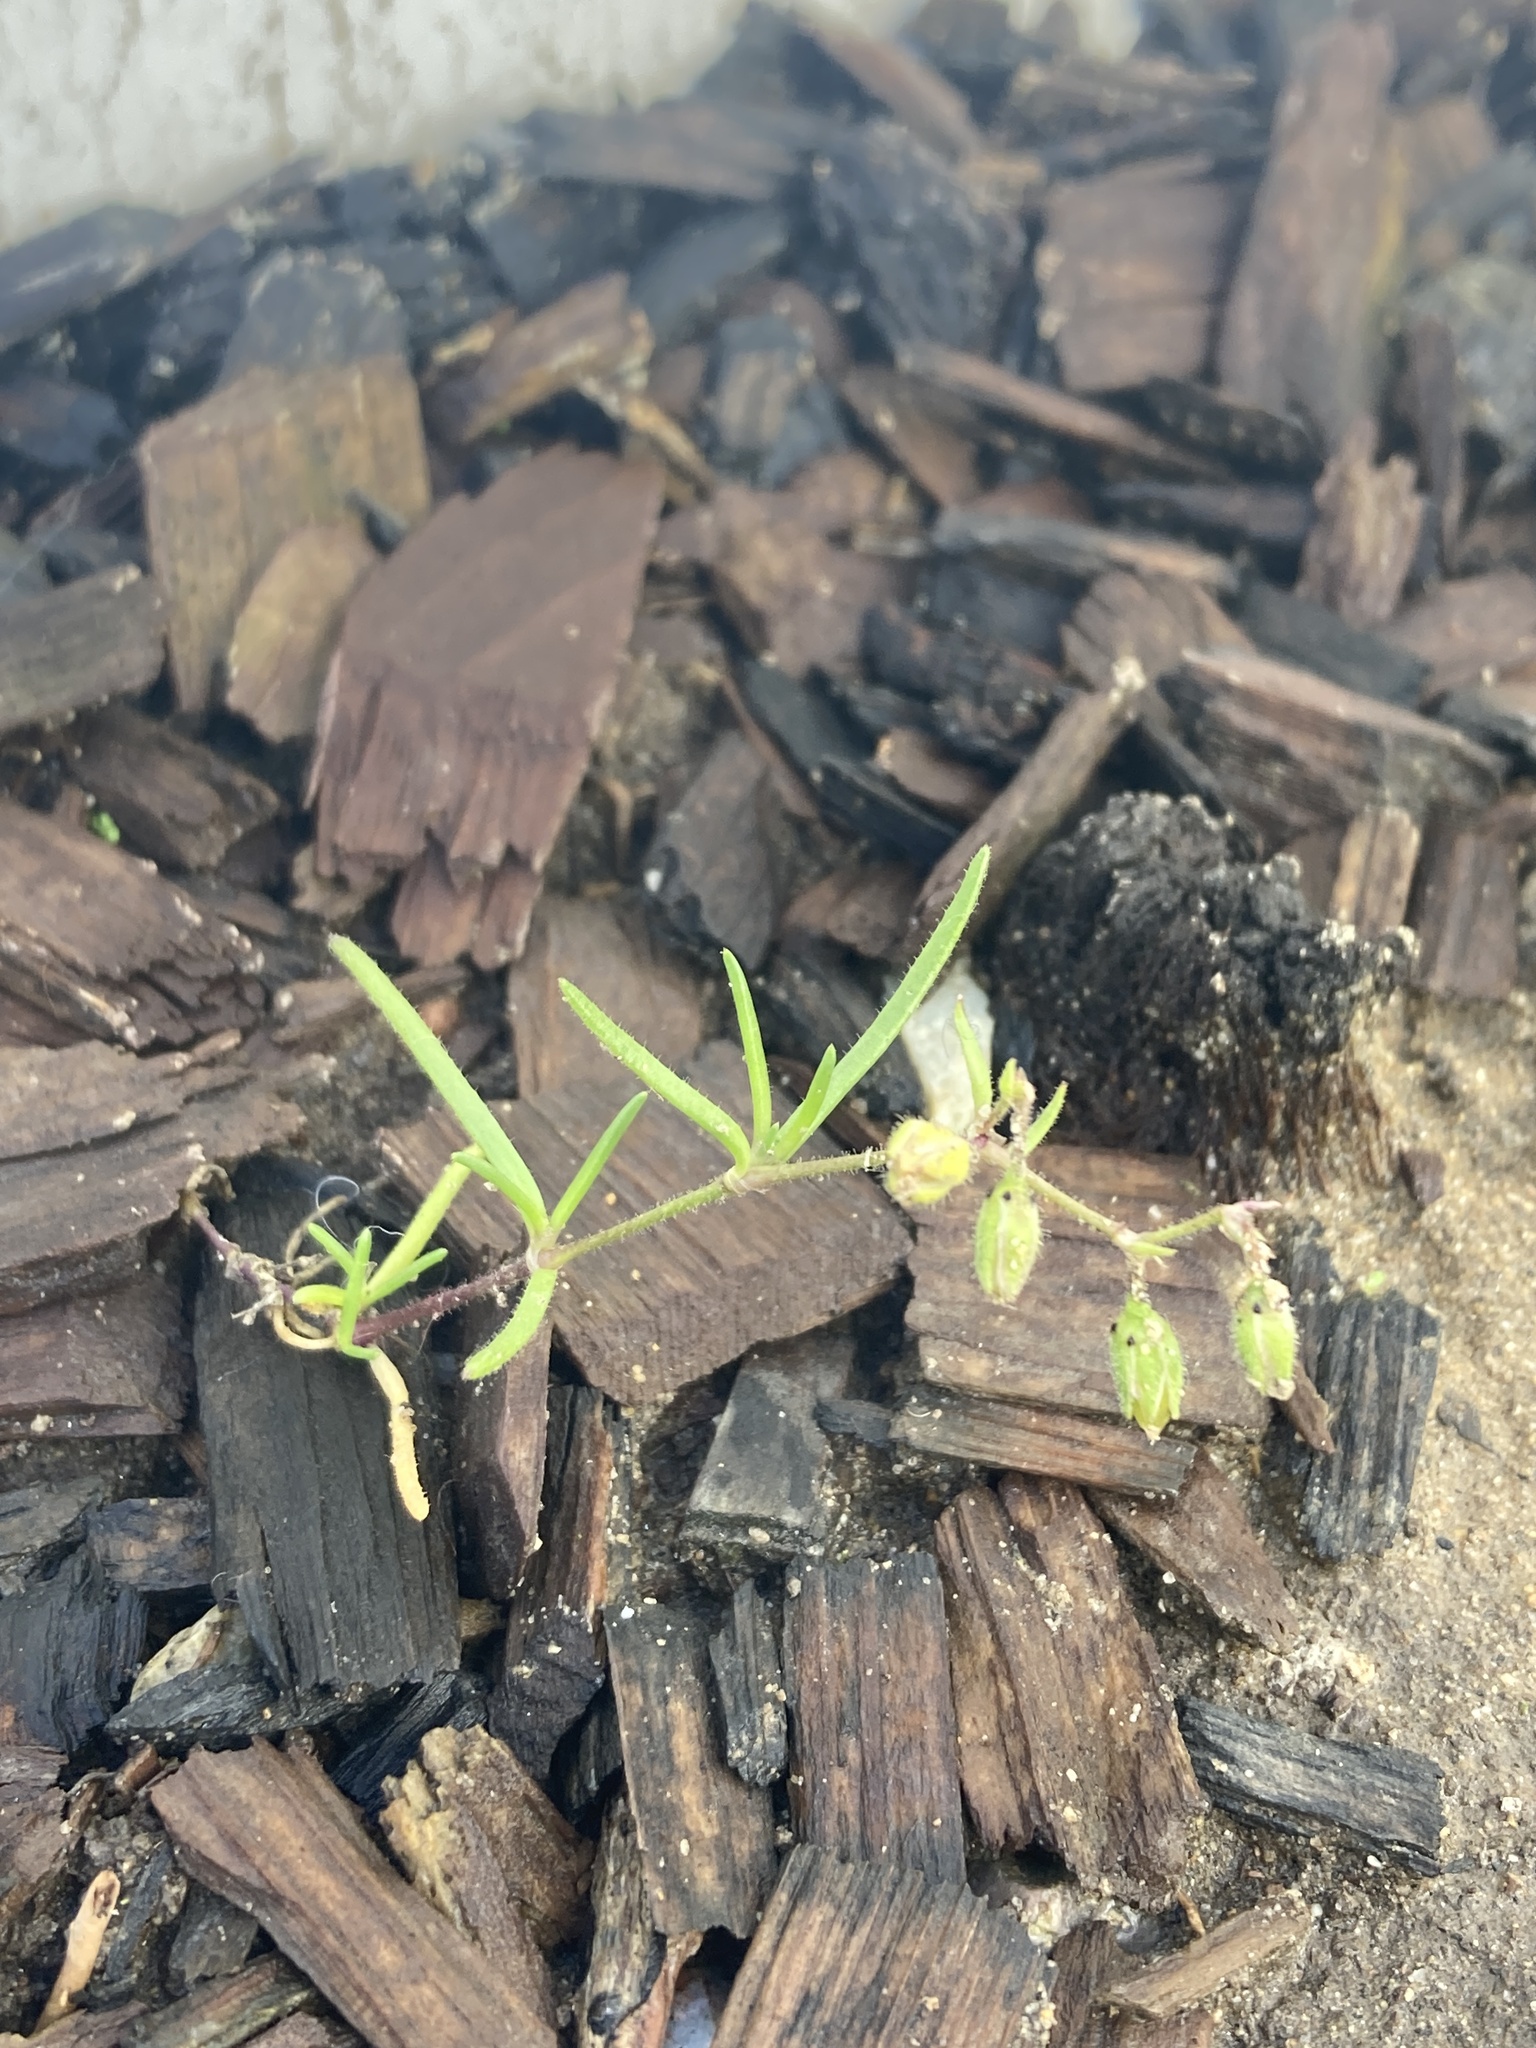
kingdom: Plantae
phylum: Tracheophyta
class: Magnoliopsida
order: Caryophyllales
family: Caryophyllaceae
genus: Spergula
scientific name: Spergula arvensis
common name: Corn spurrey
